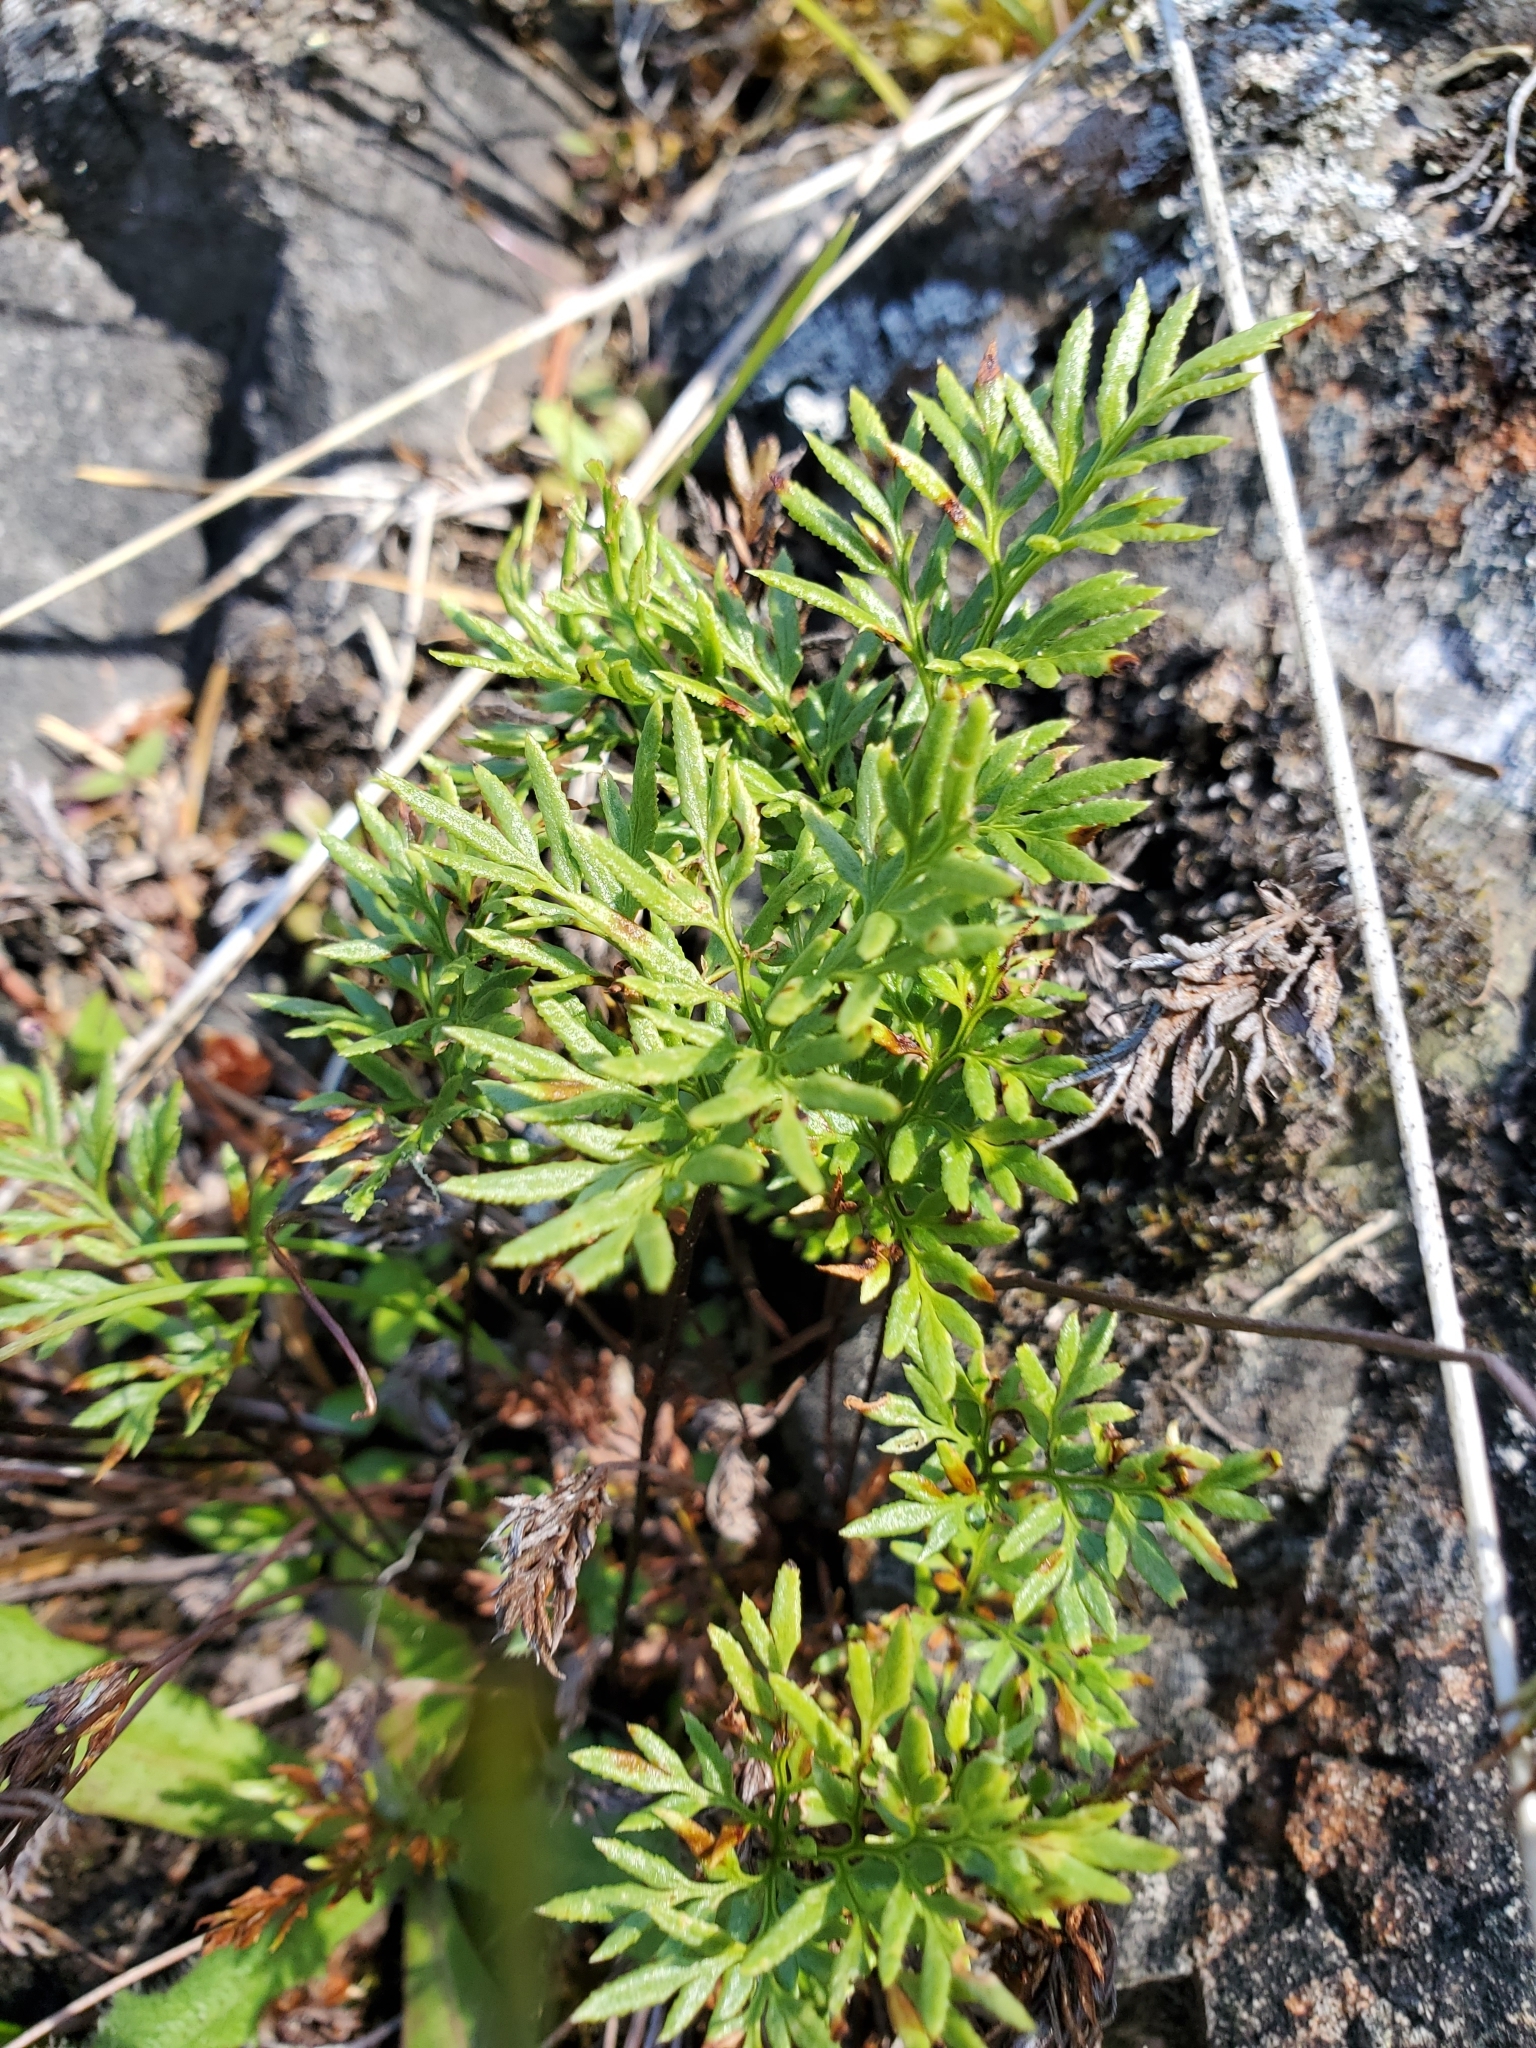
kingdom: Plantae
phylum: Tracheophyta
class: Polypodiopsida
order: Polypodiales
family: Pteridaceae
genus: Aspidotis
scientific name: Aspidotis densa
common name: Indian's dream
